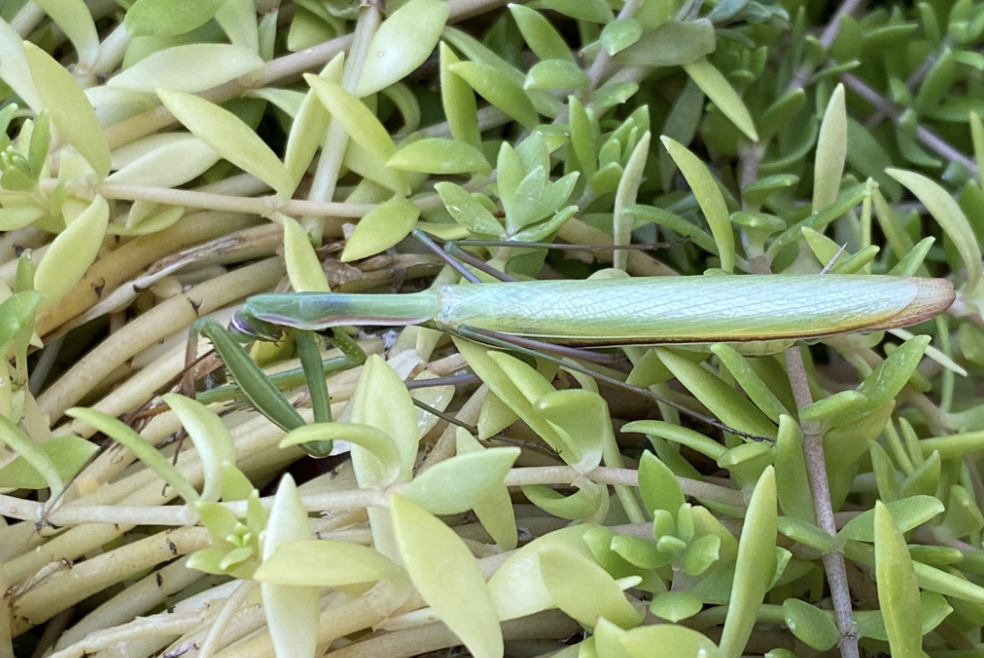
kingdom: Animalia
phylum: Arthropoda
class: Insecta
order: Mantodea
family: Mantidae
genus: Mantis
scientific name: Mantis religiosa
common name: Praying mantis
